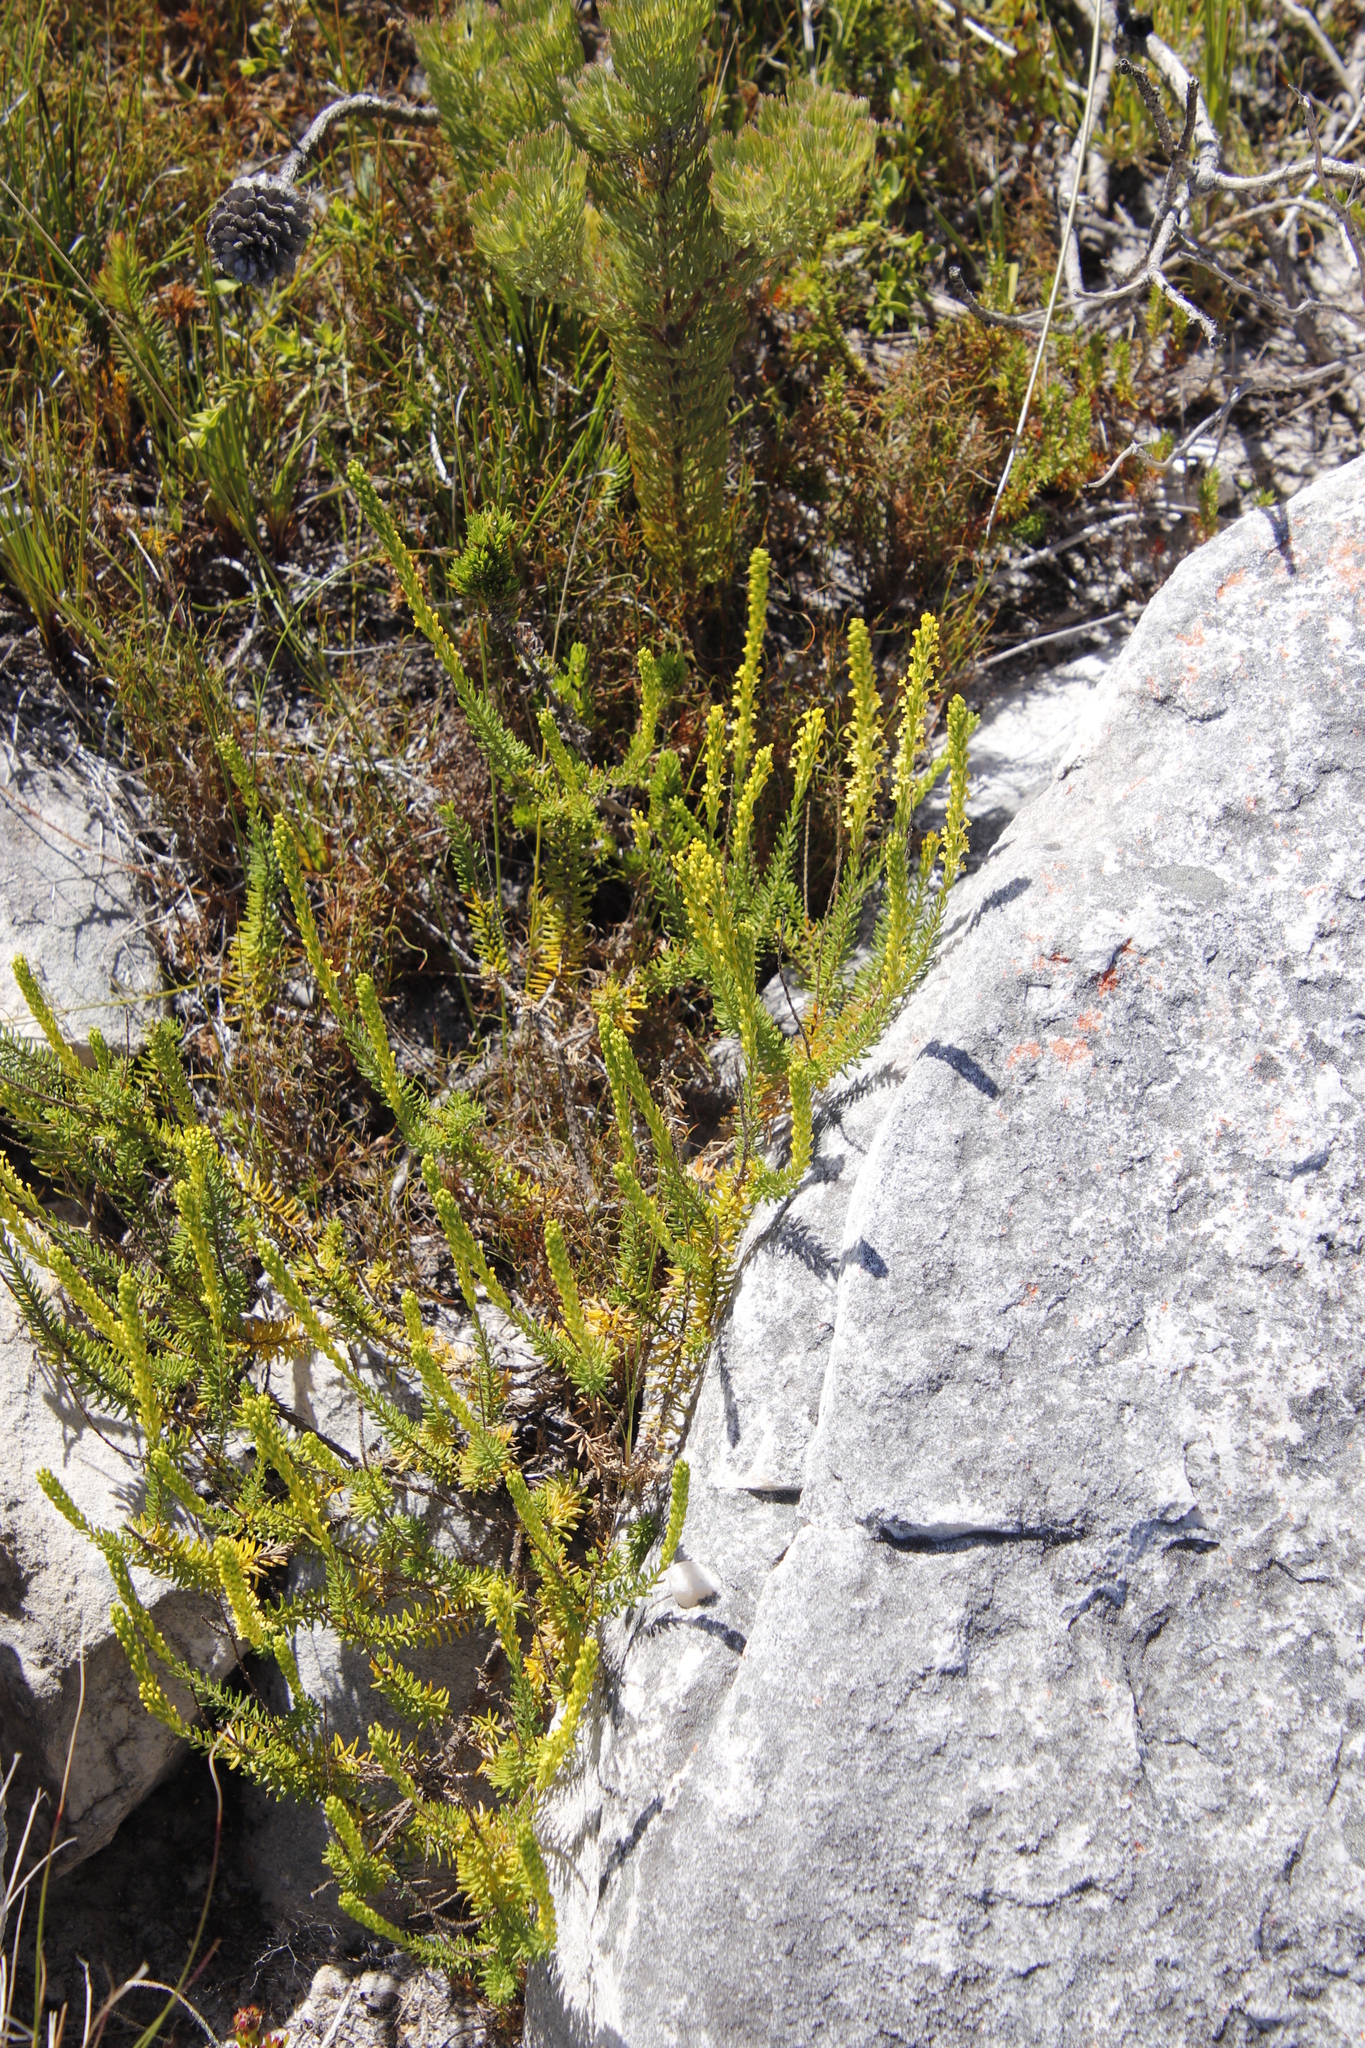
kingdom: Plantae
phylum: Tracheophyta
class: Magnoliopsida
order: Lamiales
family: Scrophulariaceae
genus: Microdon
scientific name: Microdon dubius
